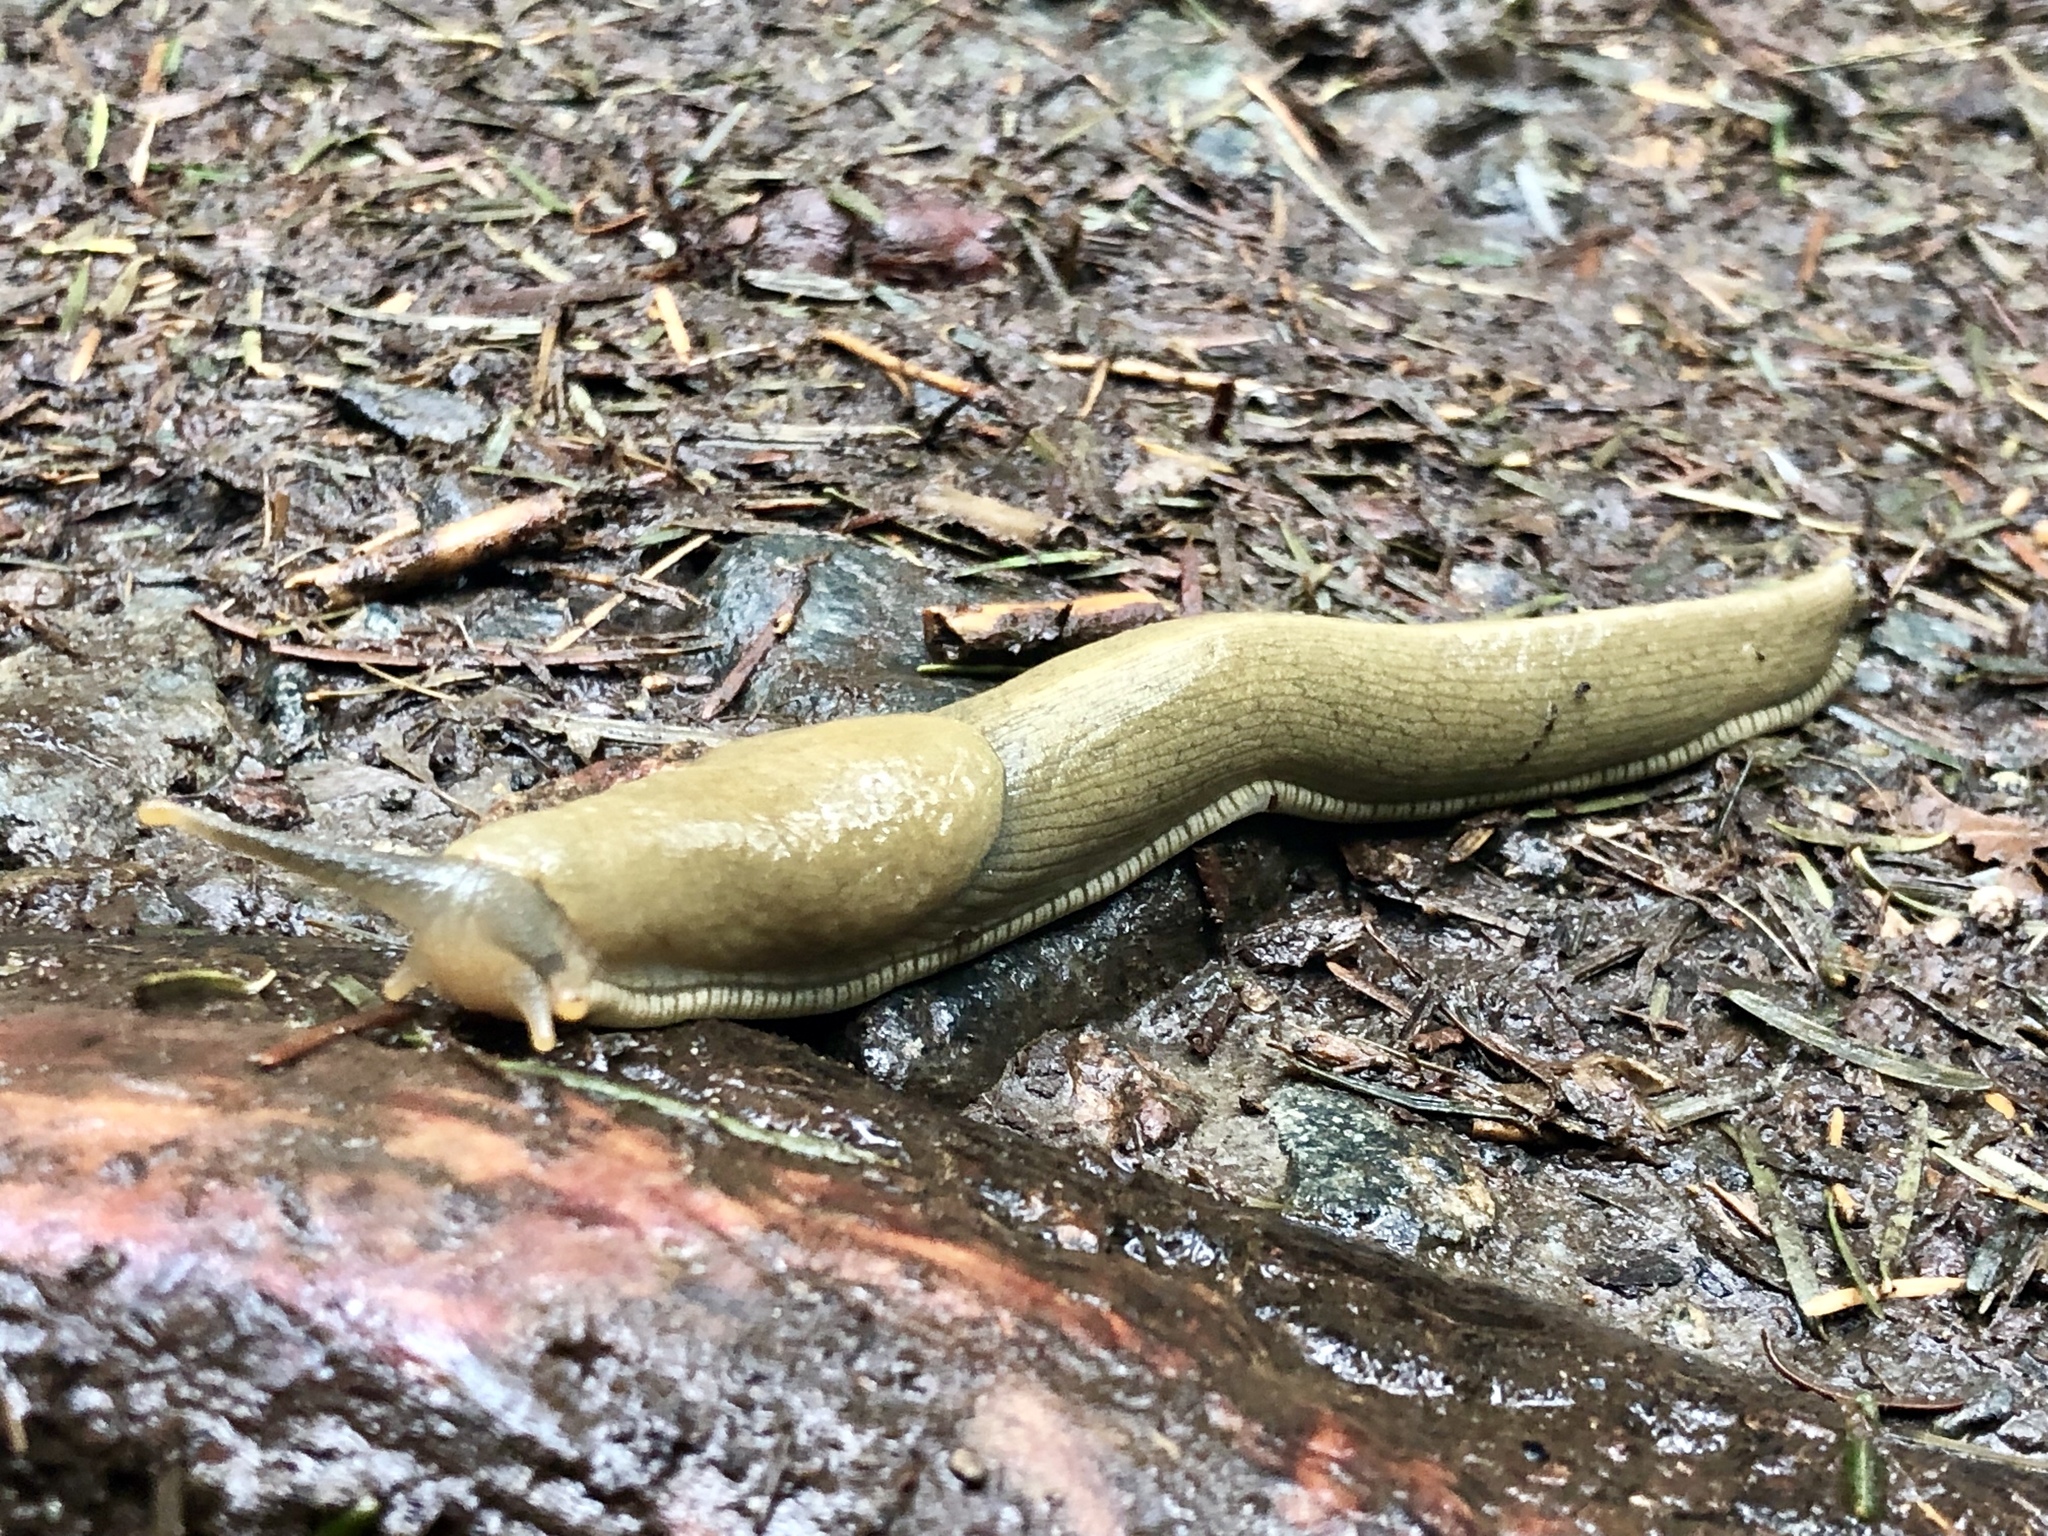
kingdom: Animalia
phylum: Mollusca
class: Gastropoda
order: Stylommatophora
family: Ariolimacidae
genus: Ariolimax
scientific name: Ariolimax columbianus
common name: Pacific banana slug
